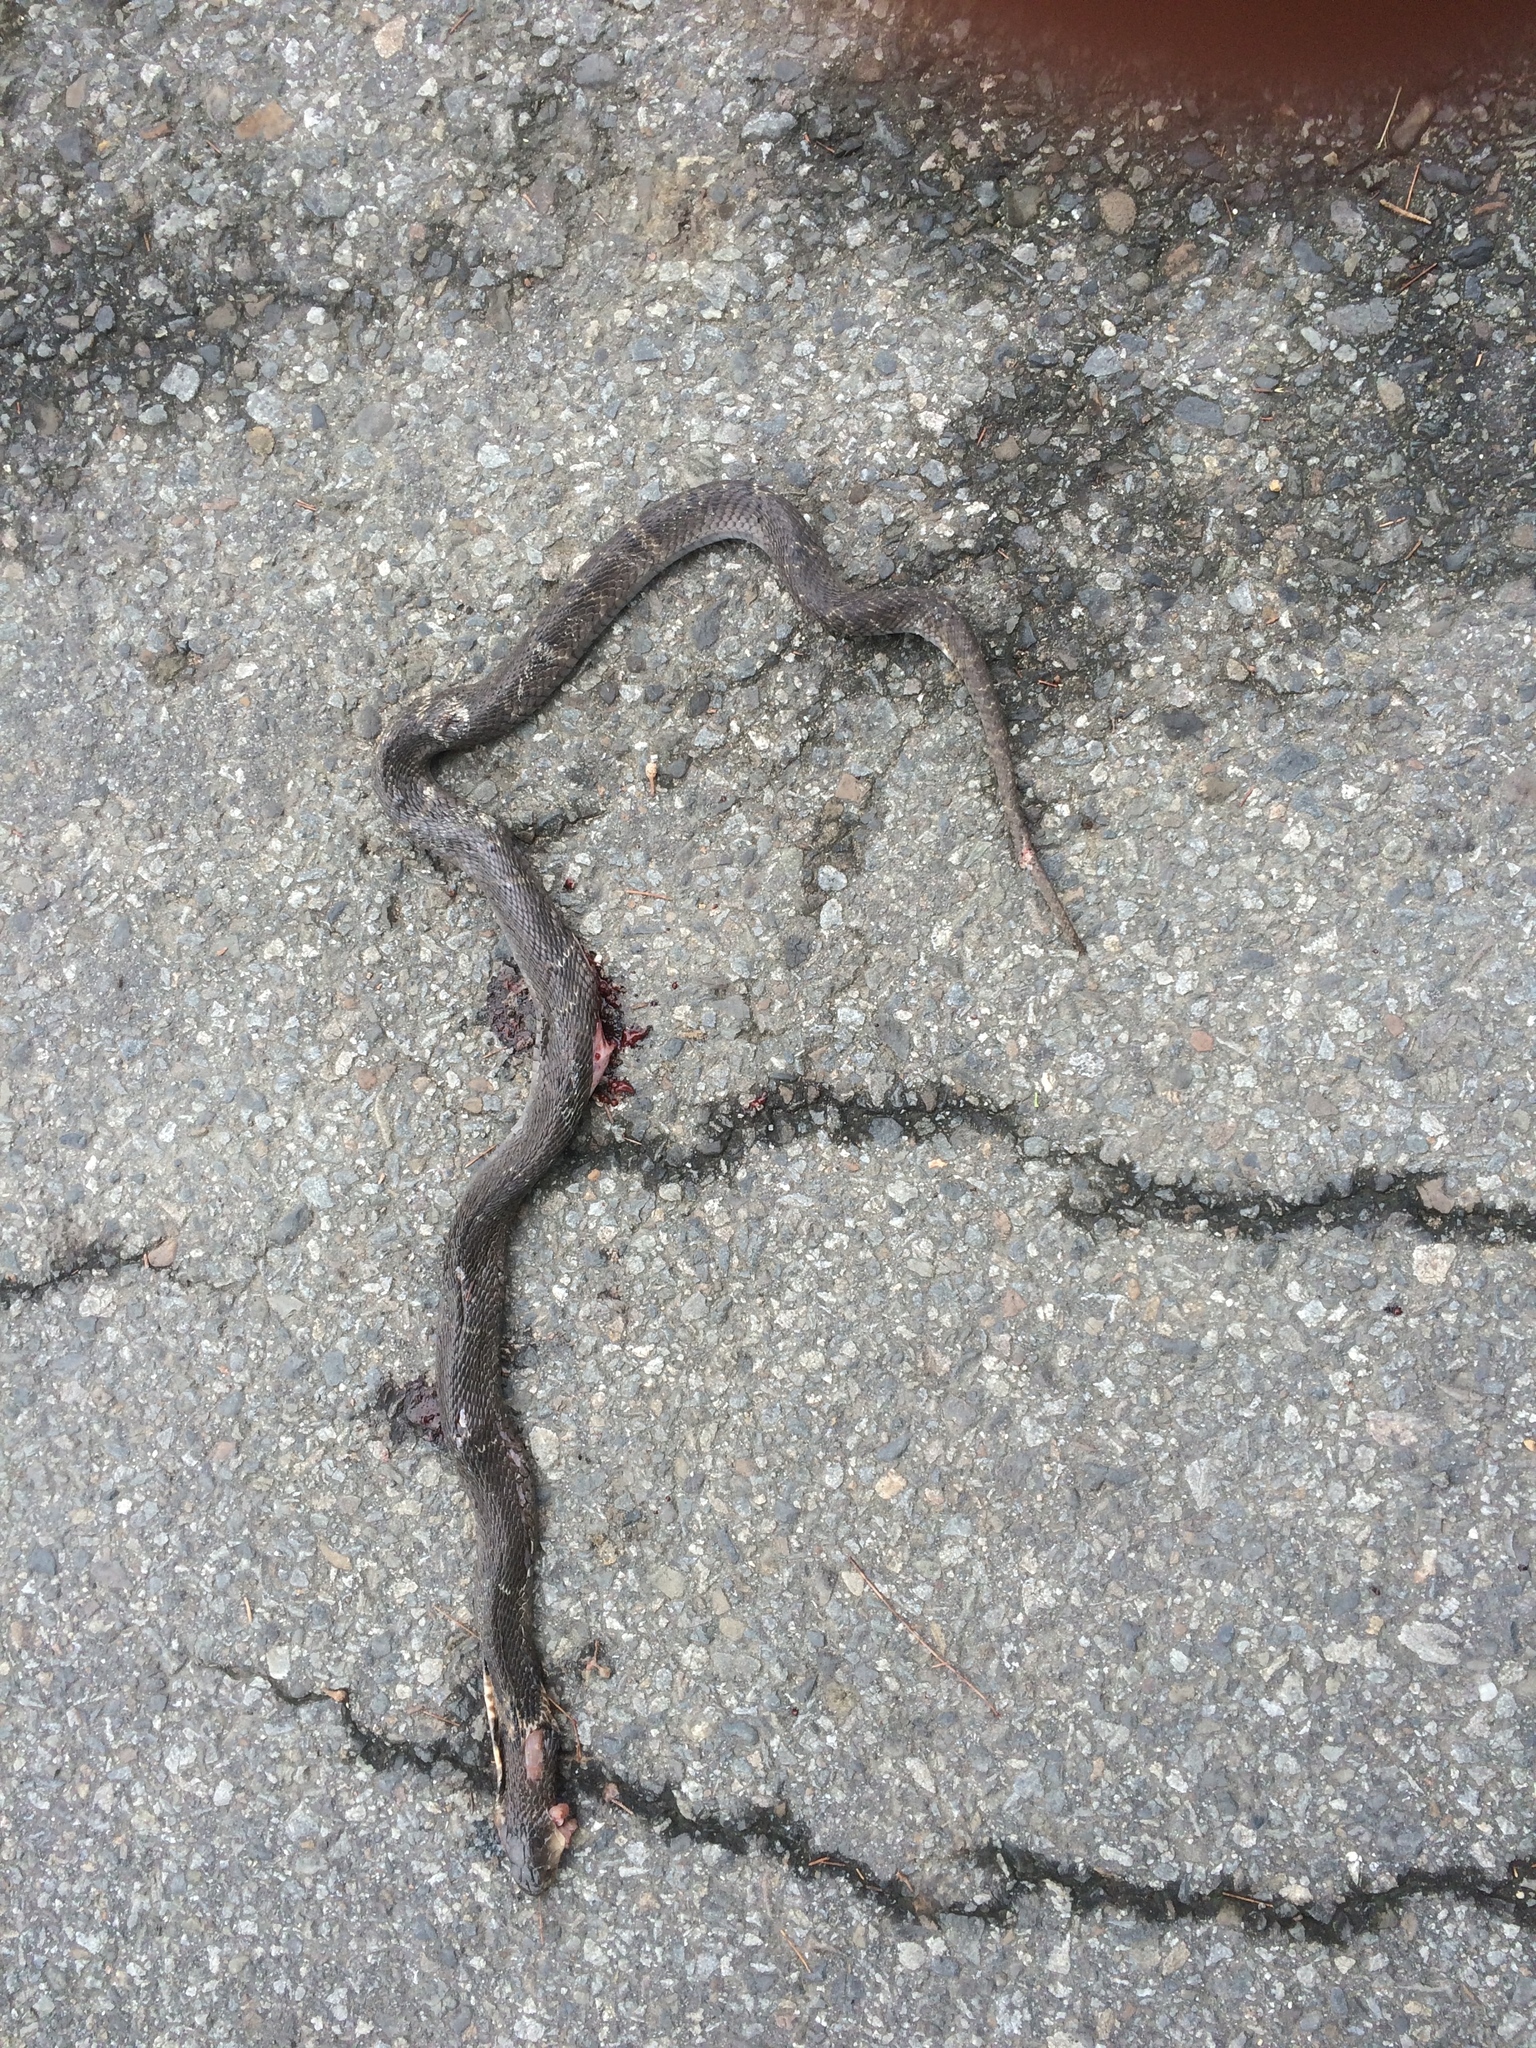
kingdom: Animalia
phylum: Chordata
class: Squamata
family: Elapidae
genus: Naja
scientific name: Naja atra
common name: Chinese cobra
